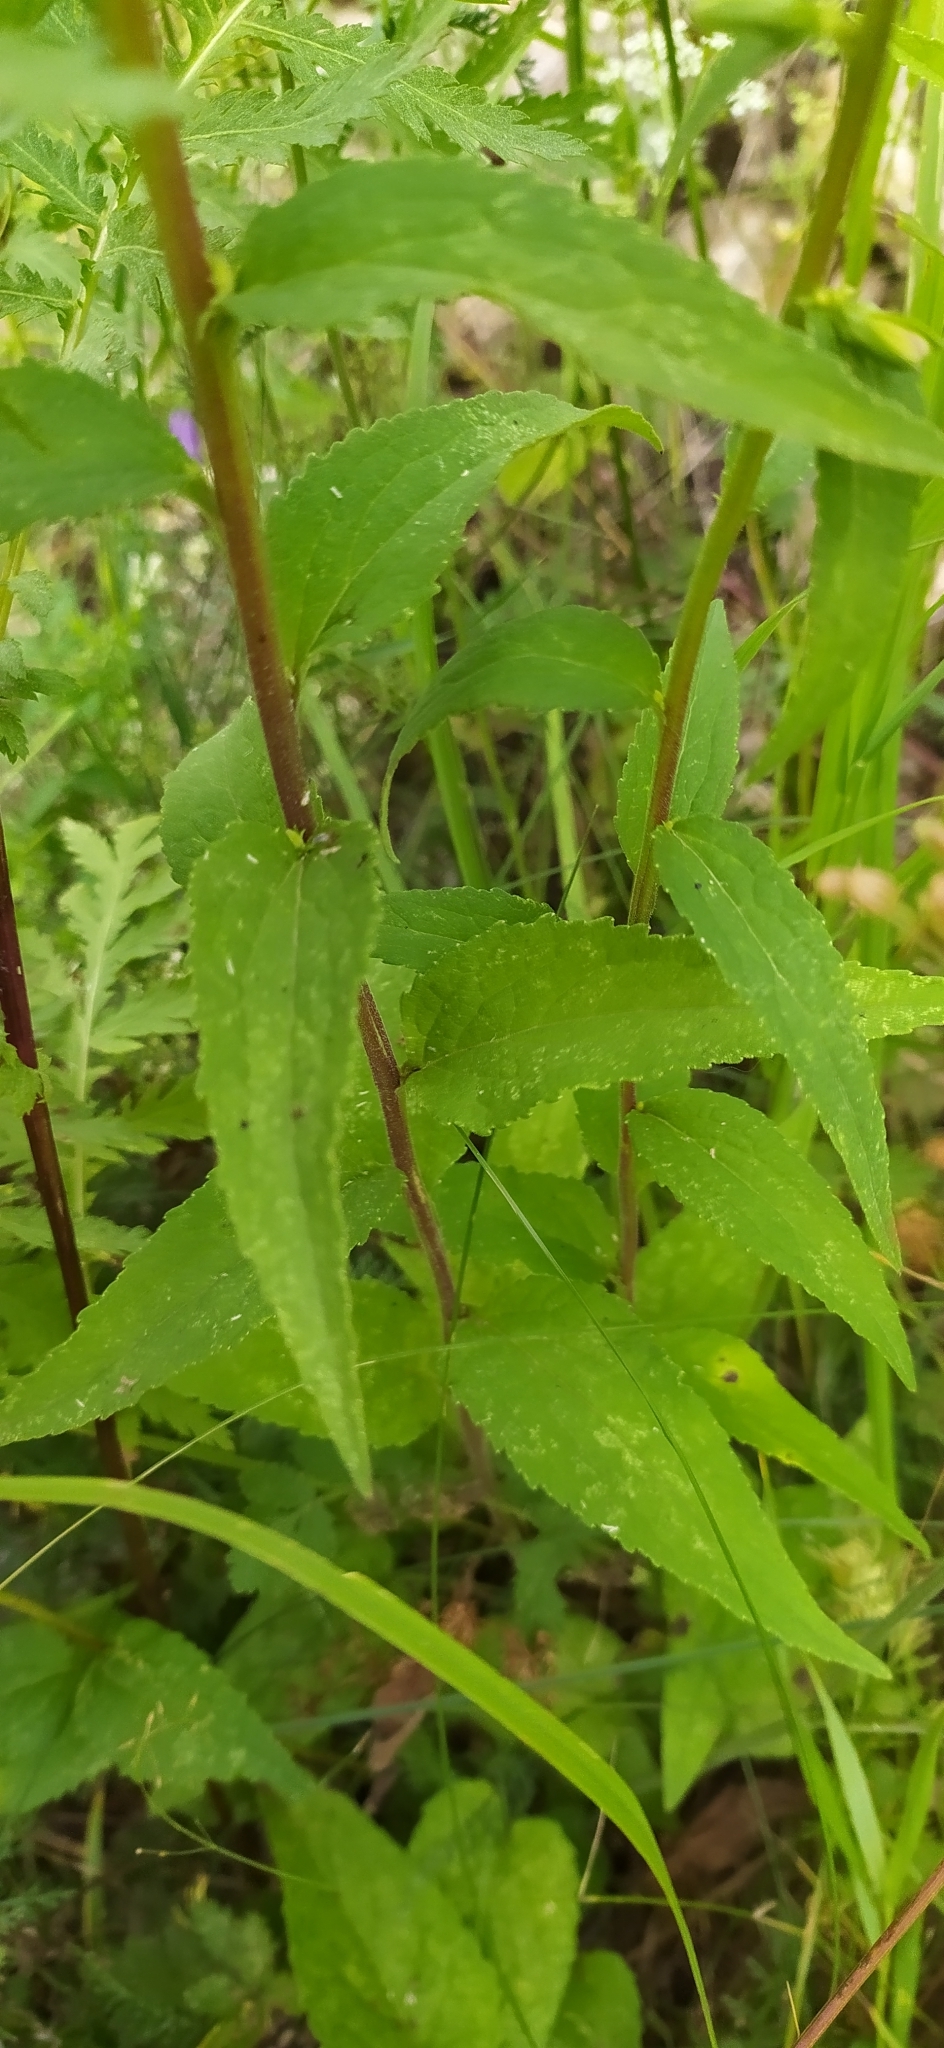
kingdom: Plantae
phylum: Tracheophyta
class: Magnoliopsida
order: Asterales
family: Campanulaceae
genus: Campanula
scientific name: Campanula rapunculoides
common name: Creeping bellflower
